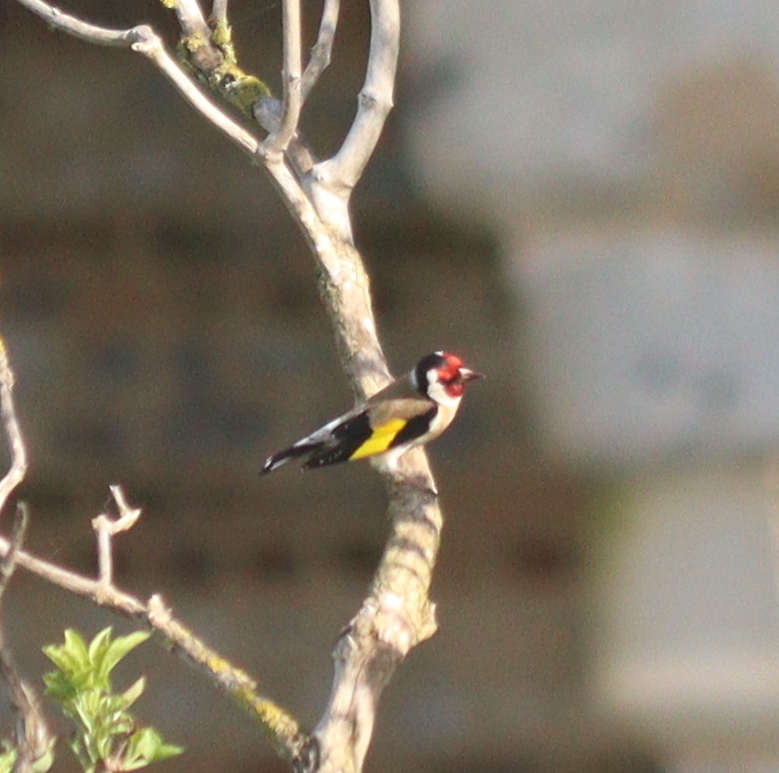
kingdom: Animalia
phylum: Chordata
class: Aves
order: Passeriformes
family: Fringillidae
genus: Carduelis
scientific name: Carduelis carduelis
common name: European goldfinch
